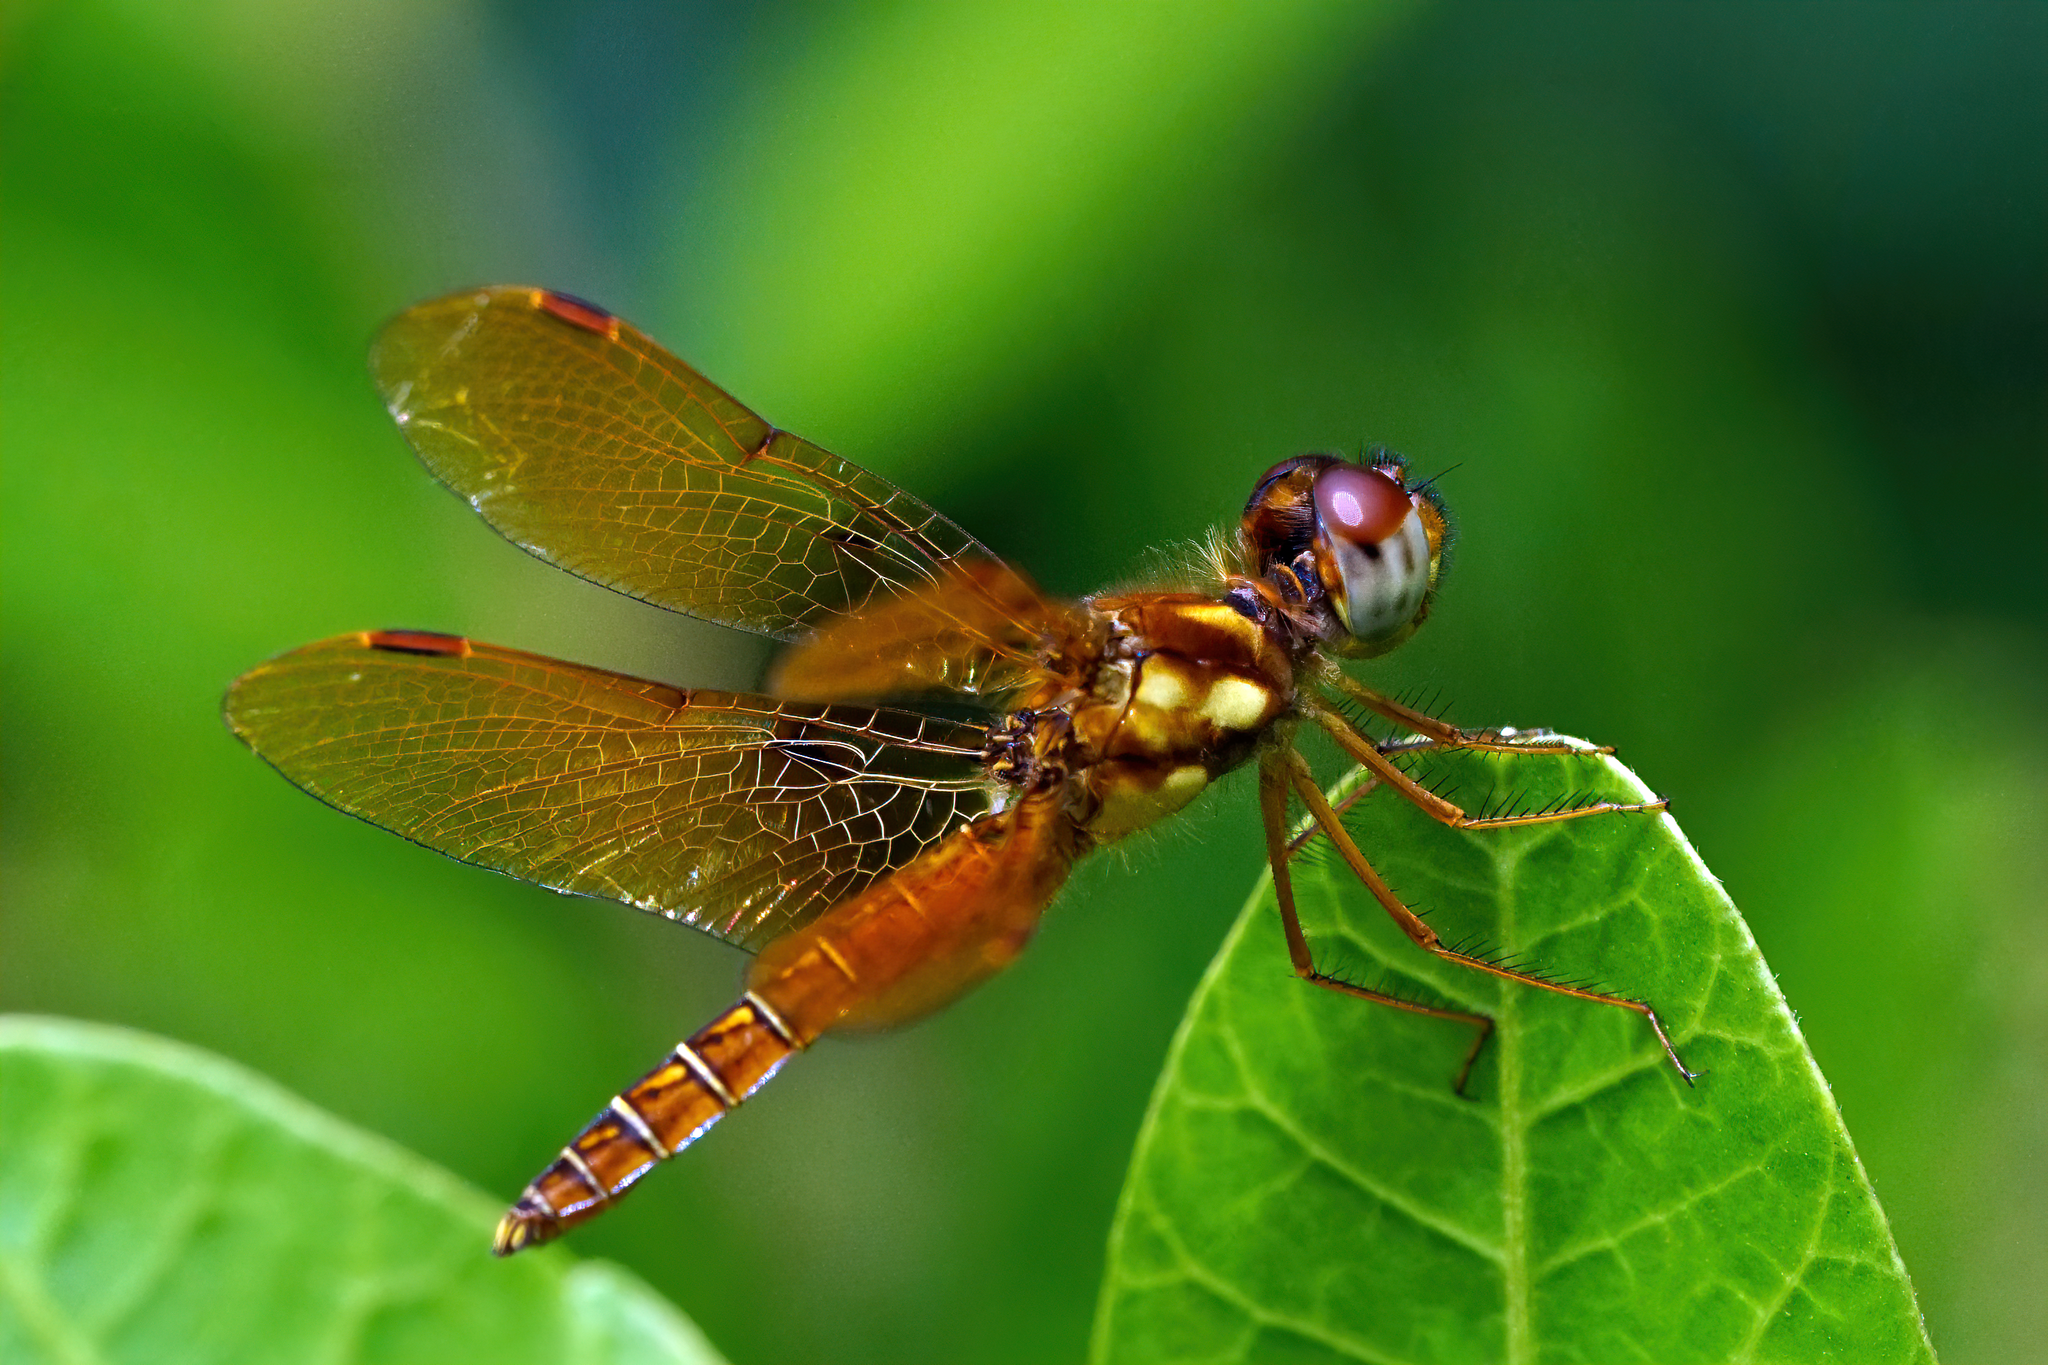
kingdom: Animalia
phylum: Arthropoda
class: Insecta
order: Odonata
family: Libellulidae
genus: Perithemis
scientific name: Perithemis tenera
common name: Eastern amberwing
